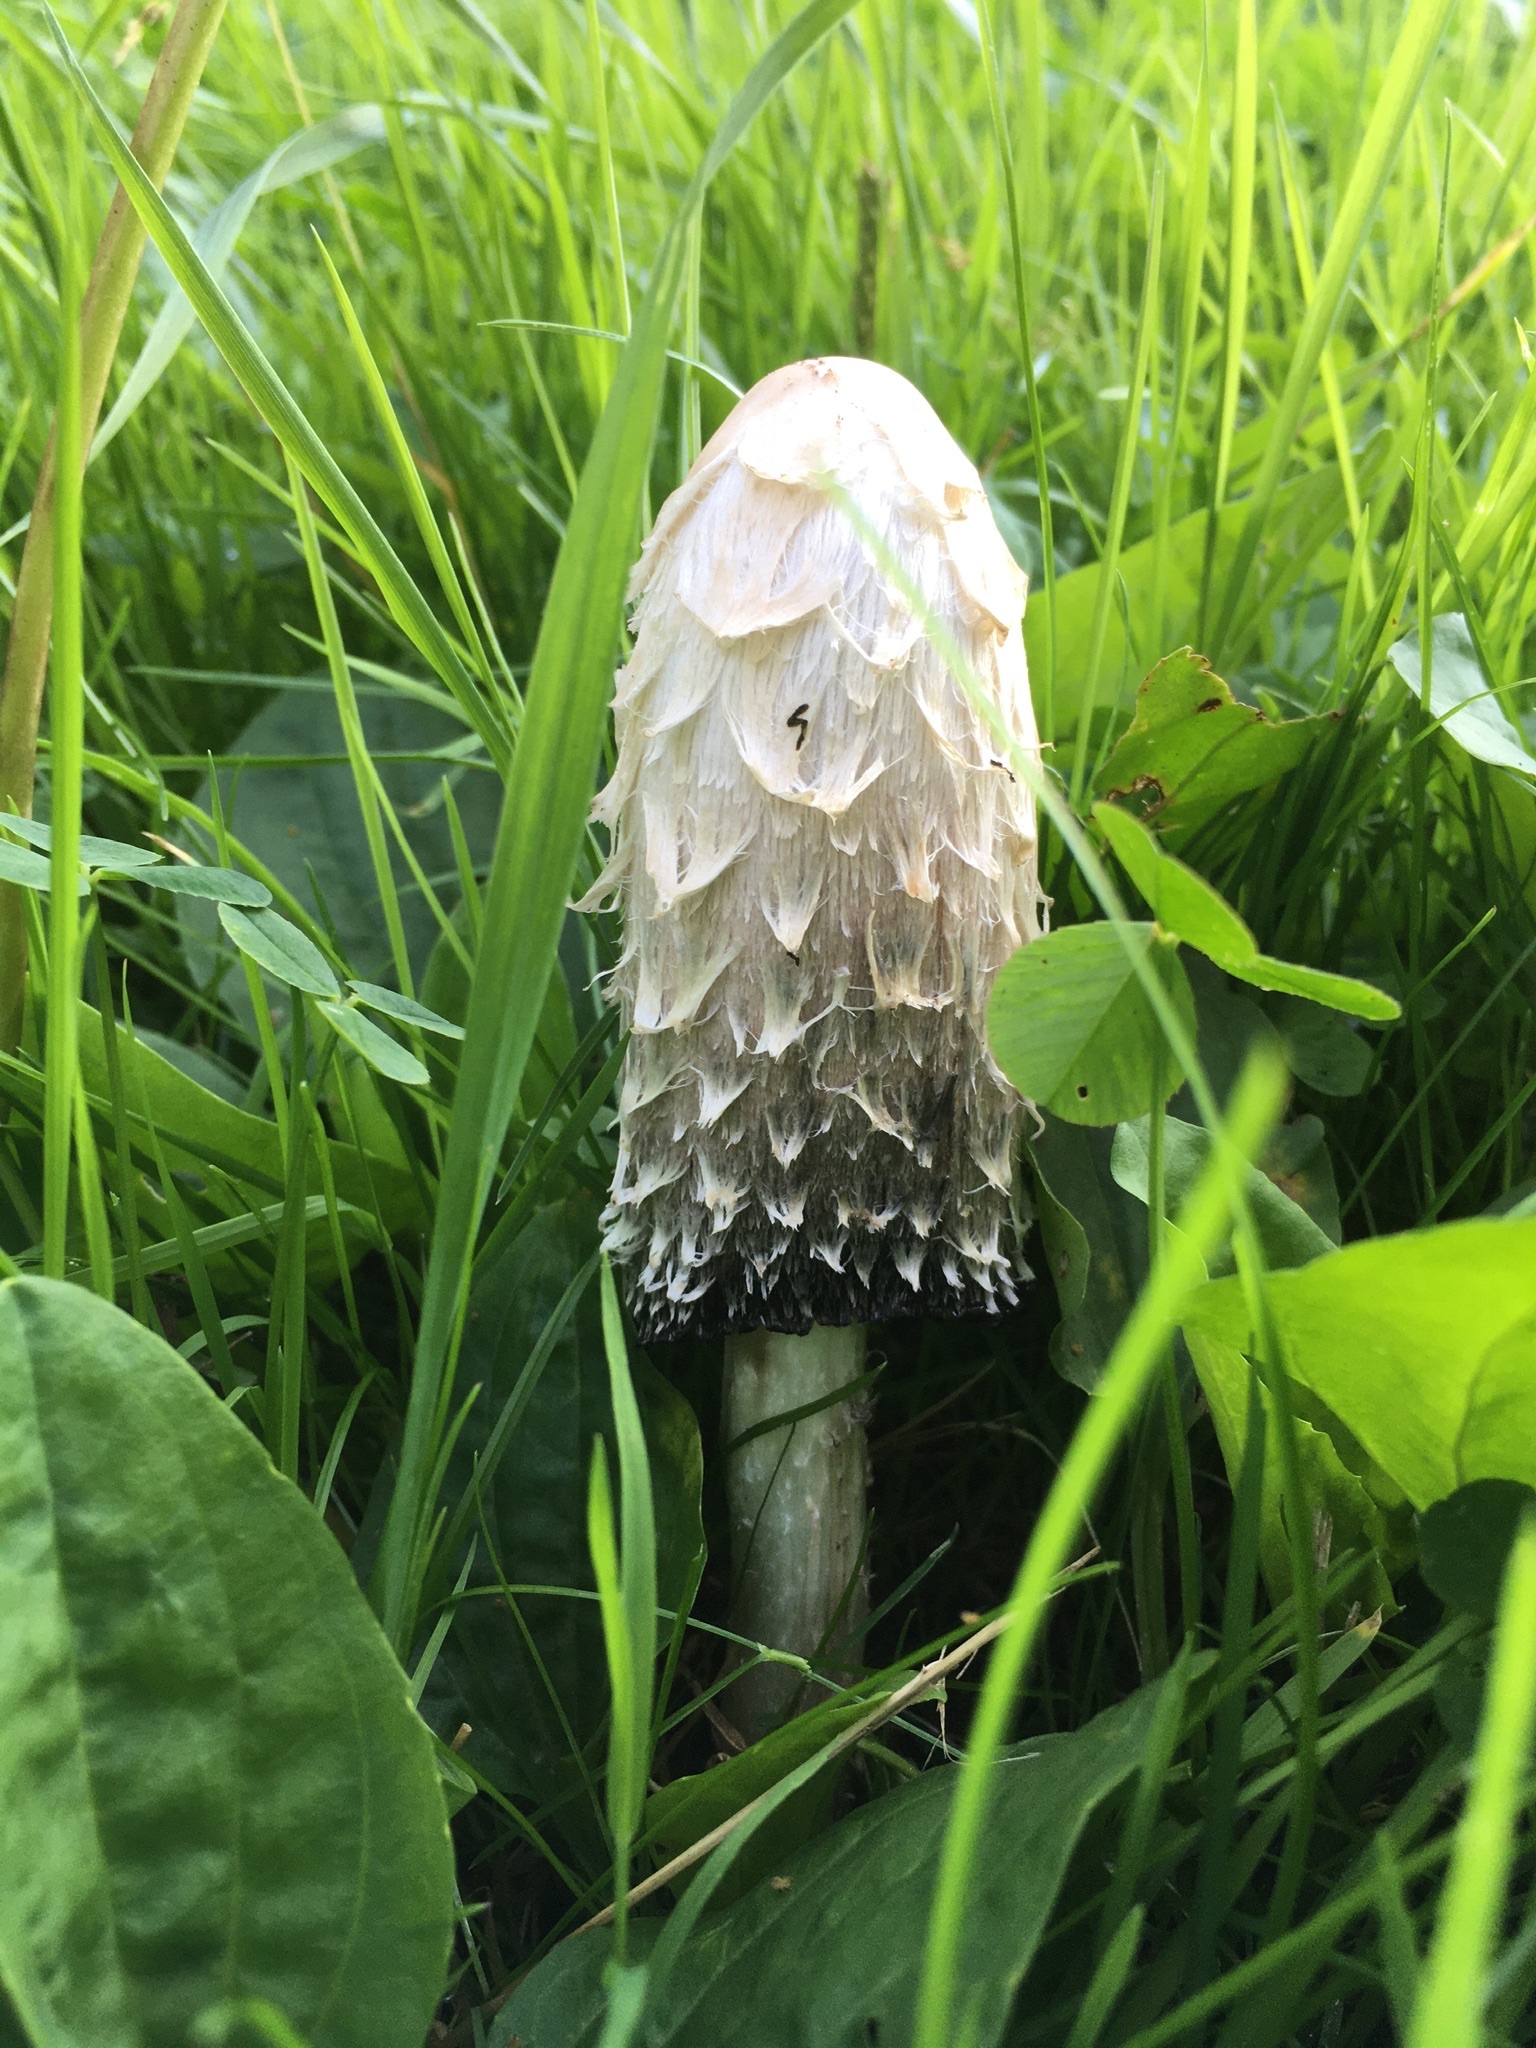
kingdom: Fungi
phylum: Basidiomycota
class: Agaricomycetes
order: Agaricales
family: Agaricaceae
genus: Coprinus
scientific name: Coprinus comatus
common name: Lawyer's wig
